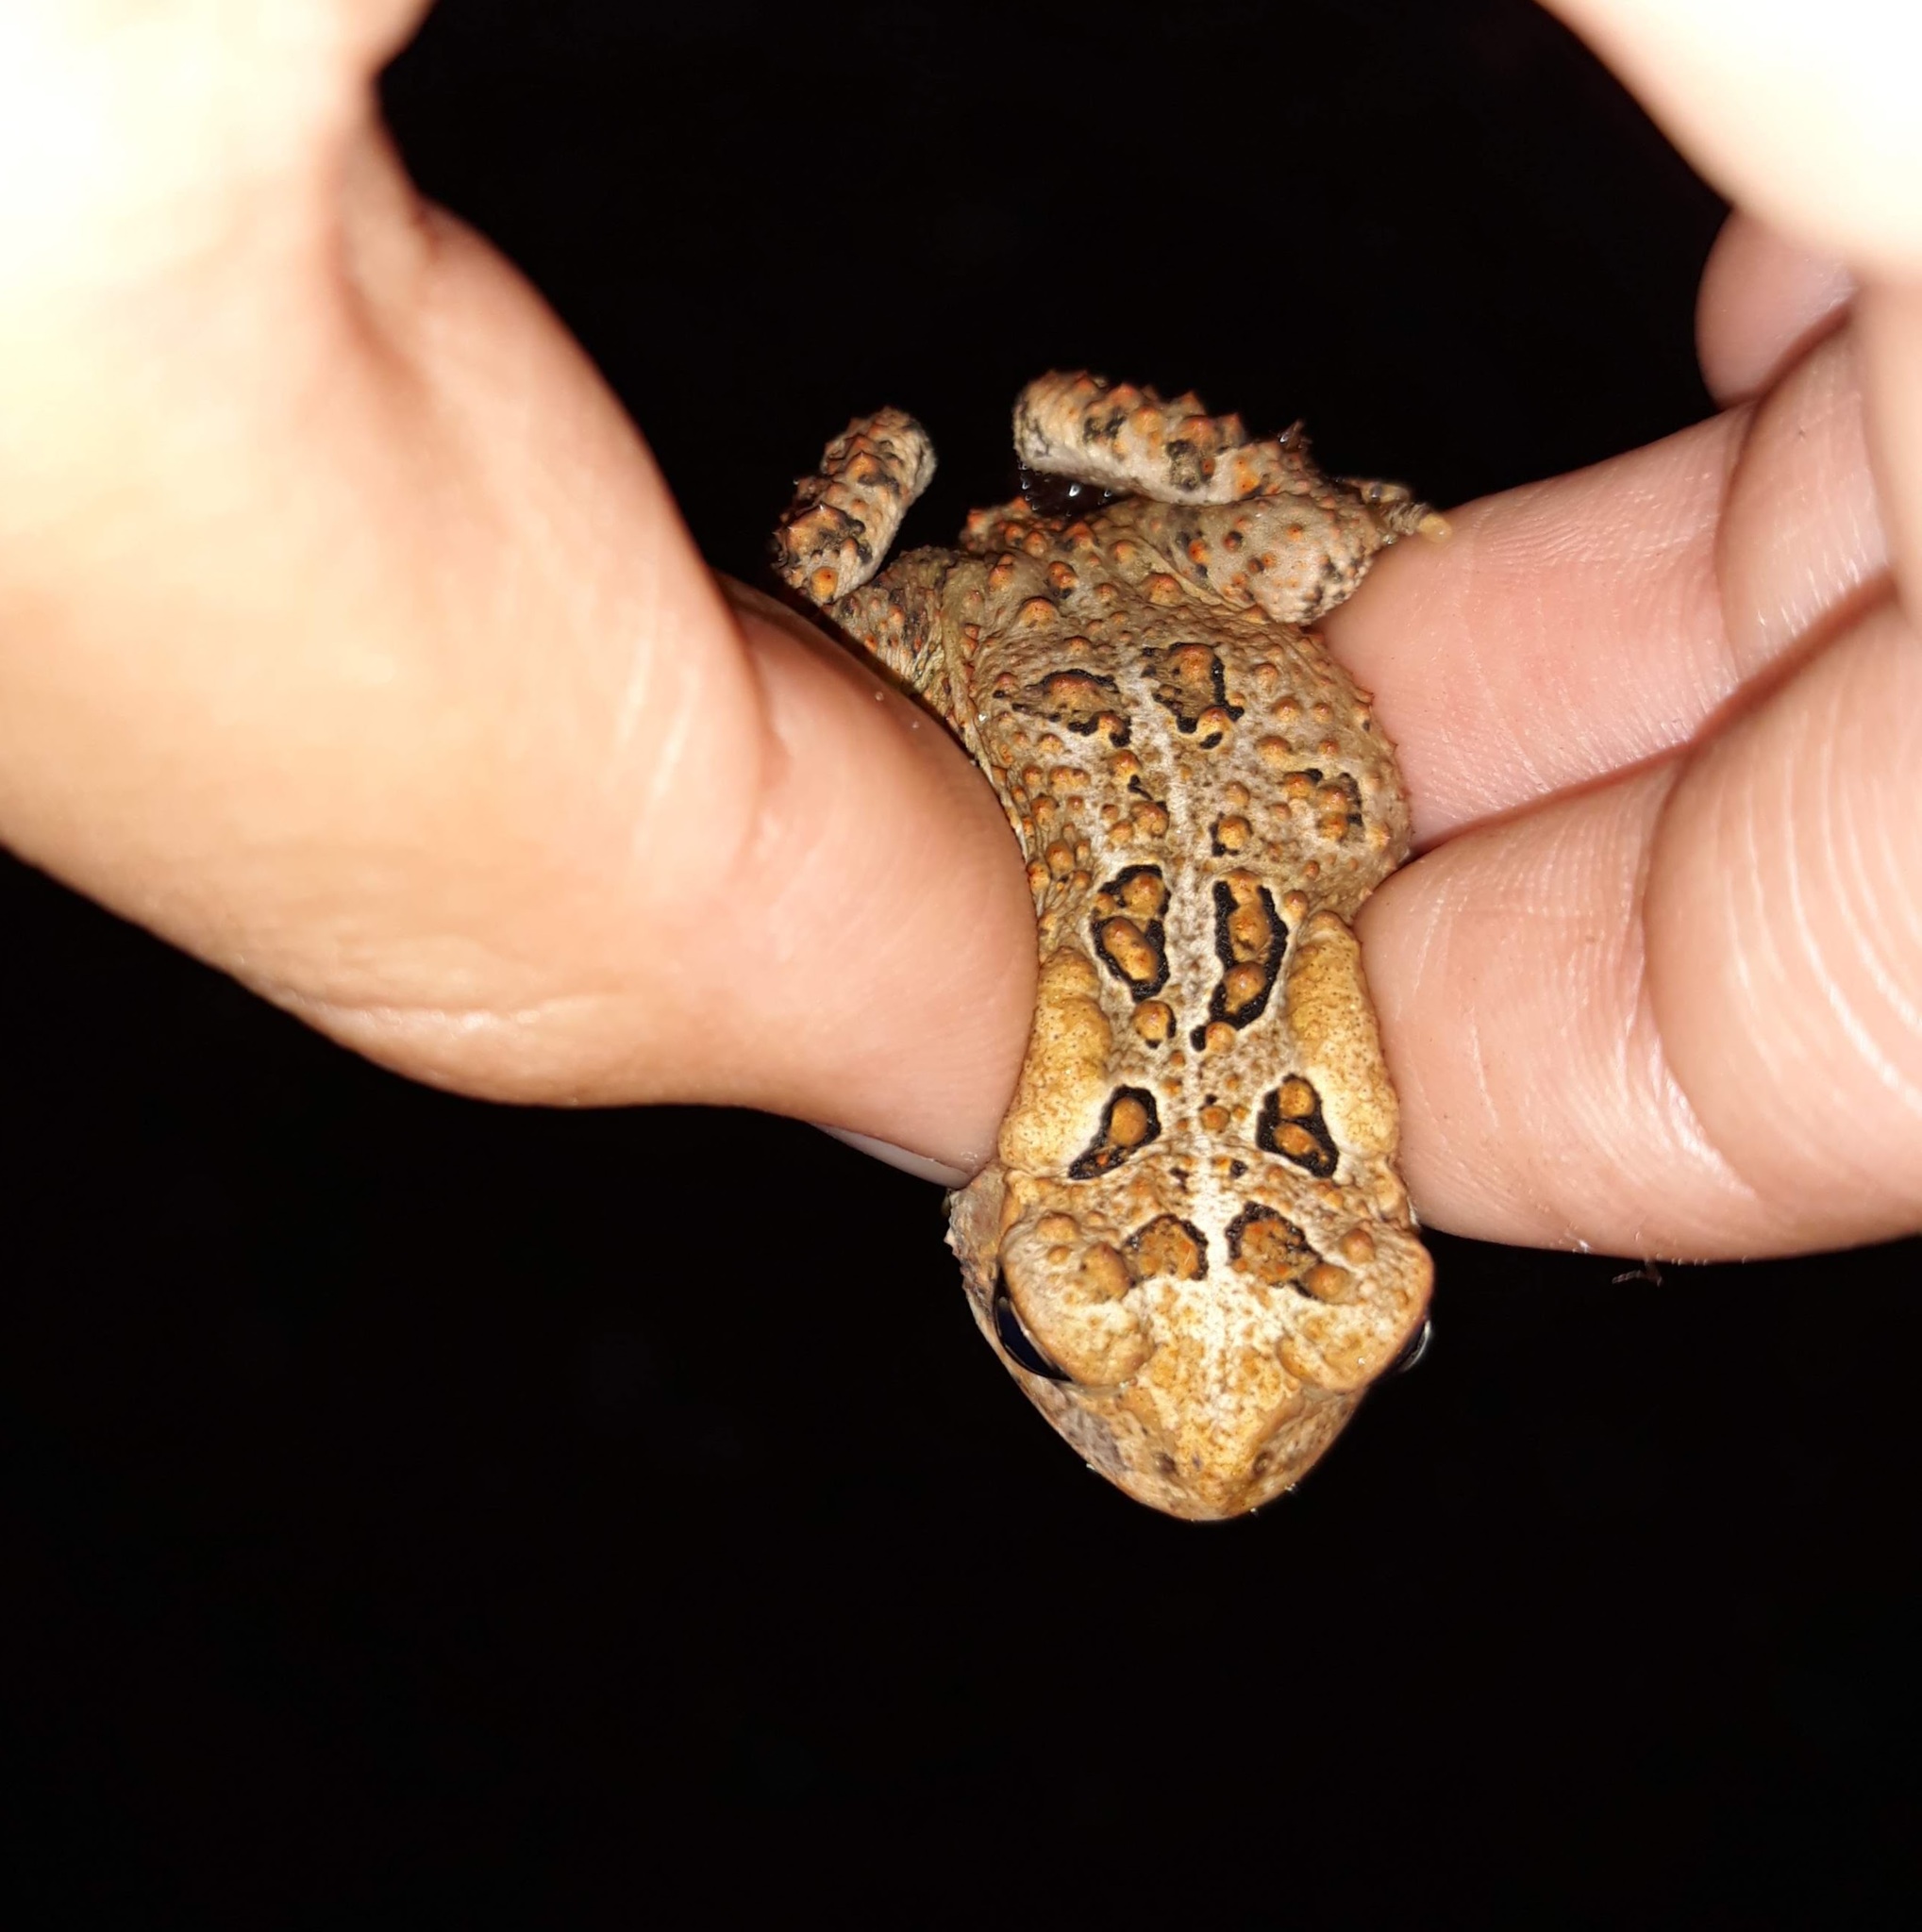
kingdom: Animalia
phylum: Chordata
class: Amphibia
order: Anura
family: Bufonidae
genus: Anaxyrus
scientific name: Anaxyrus americanus
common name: American toad
